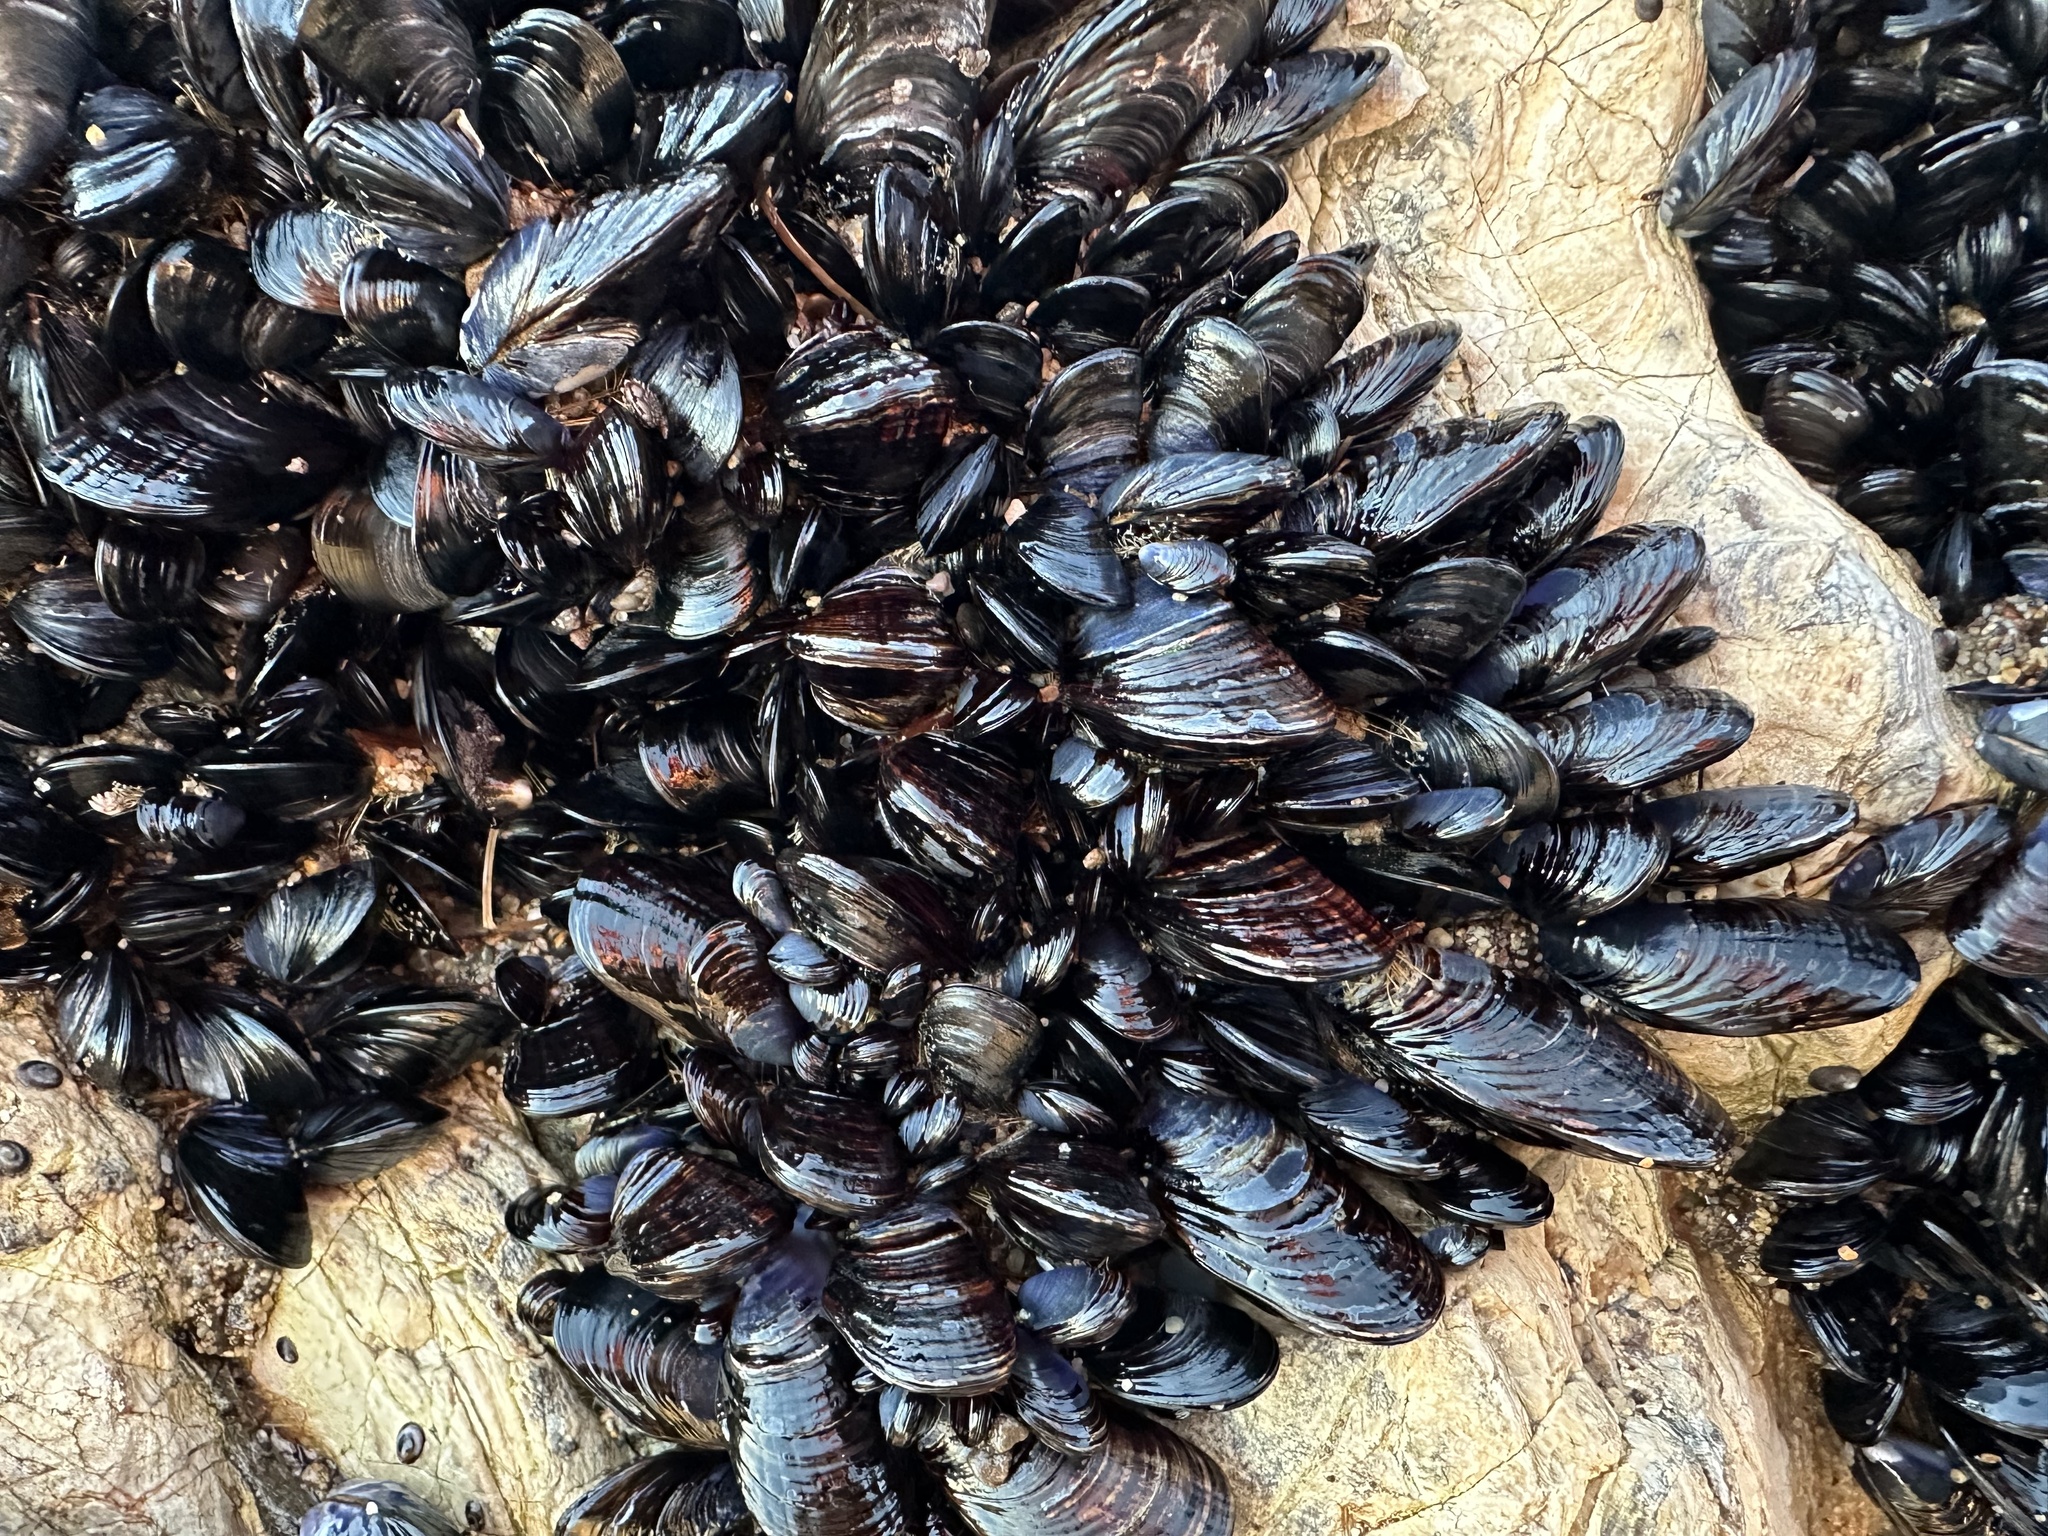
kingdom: Animalia
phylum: Mollusca
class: Bivalvia
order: Mytilida
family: Mytilidae
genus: Mytilus
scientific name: Mytilus californianus
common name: California mussel
